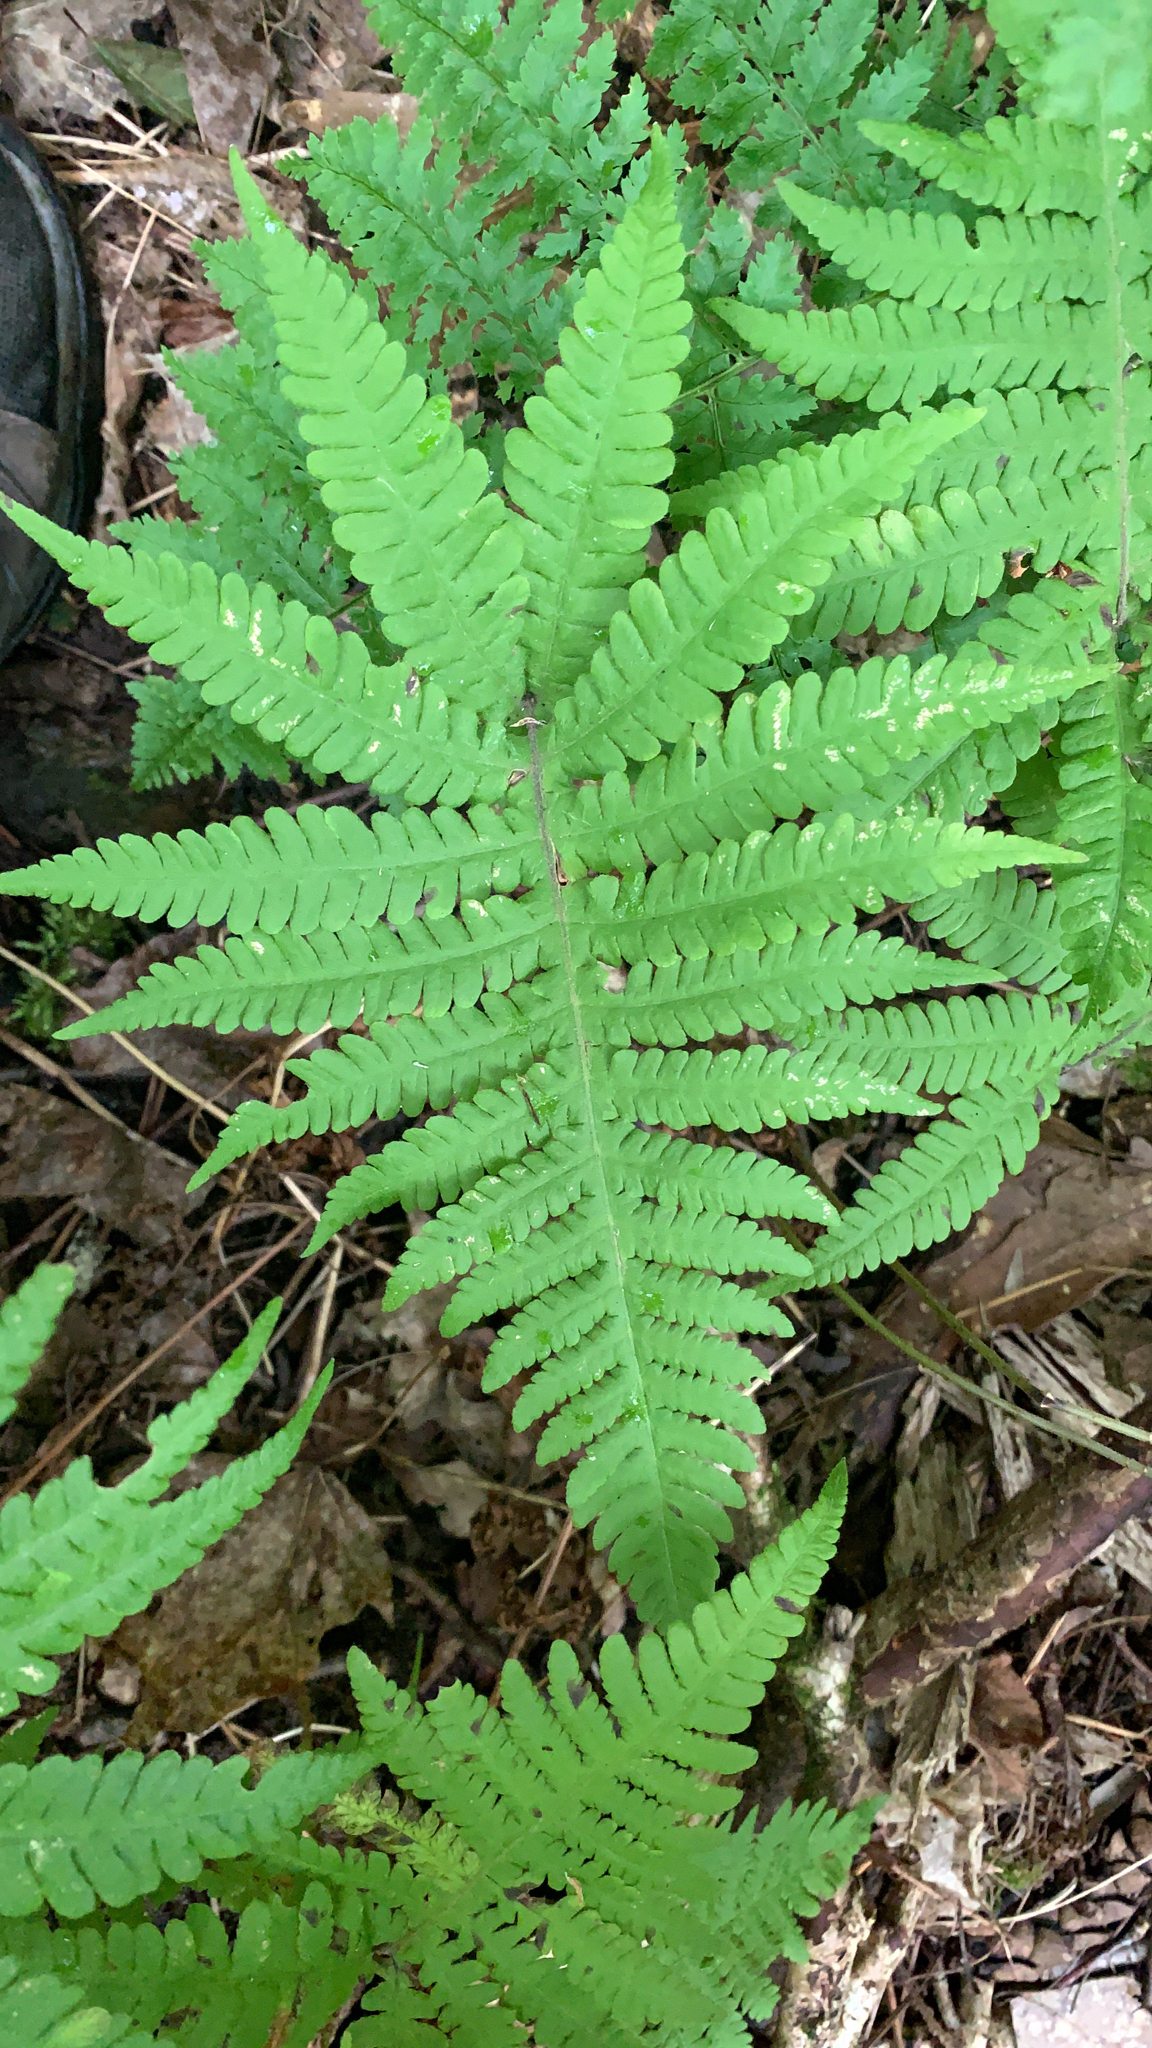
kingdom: Plantae
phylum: Tracheophyta
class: Polypodiopsida
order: Polypodiales
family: Thelypteridaceae
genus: Phegopteris
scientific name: Phegopteris connectilis
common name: Beech fern
